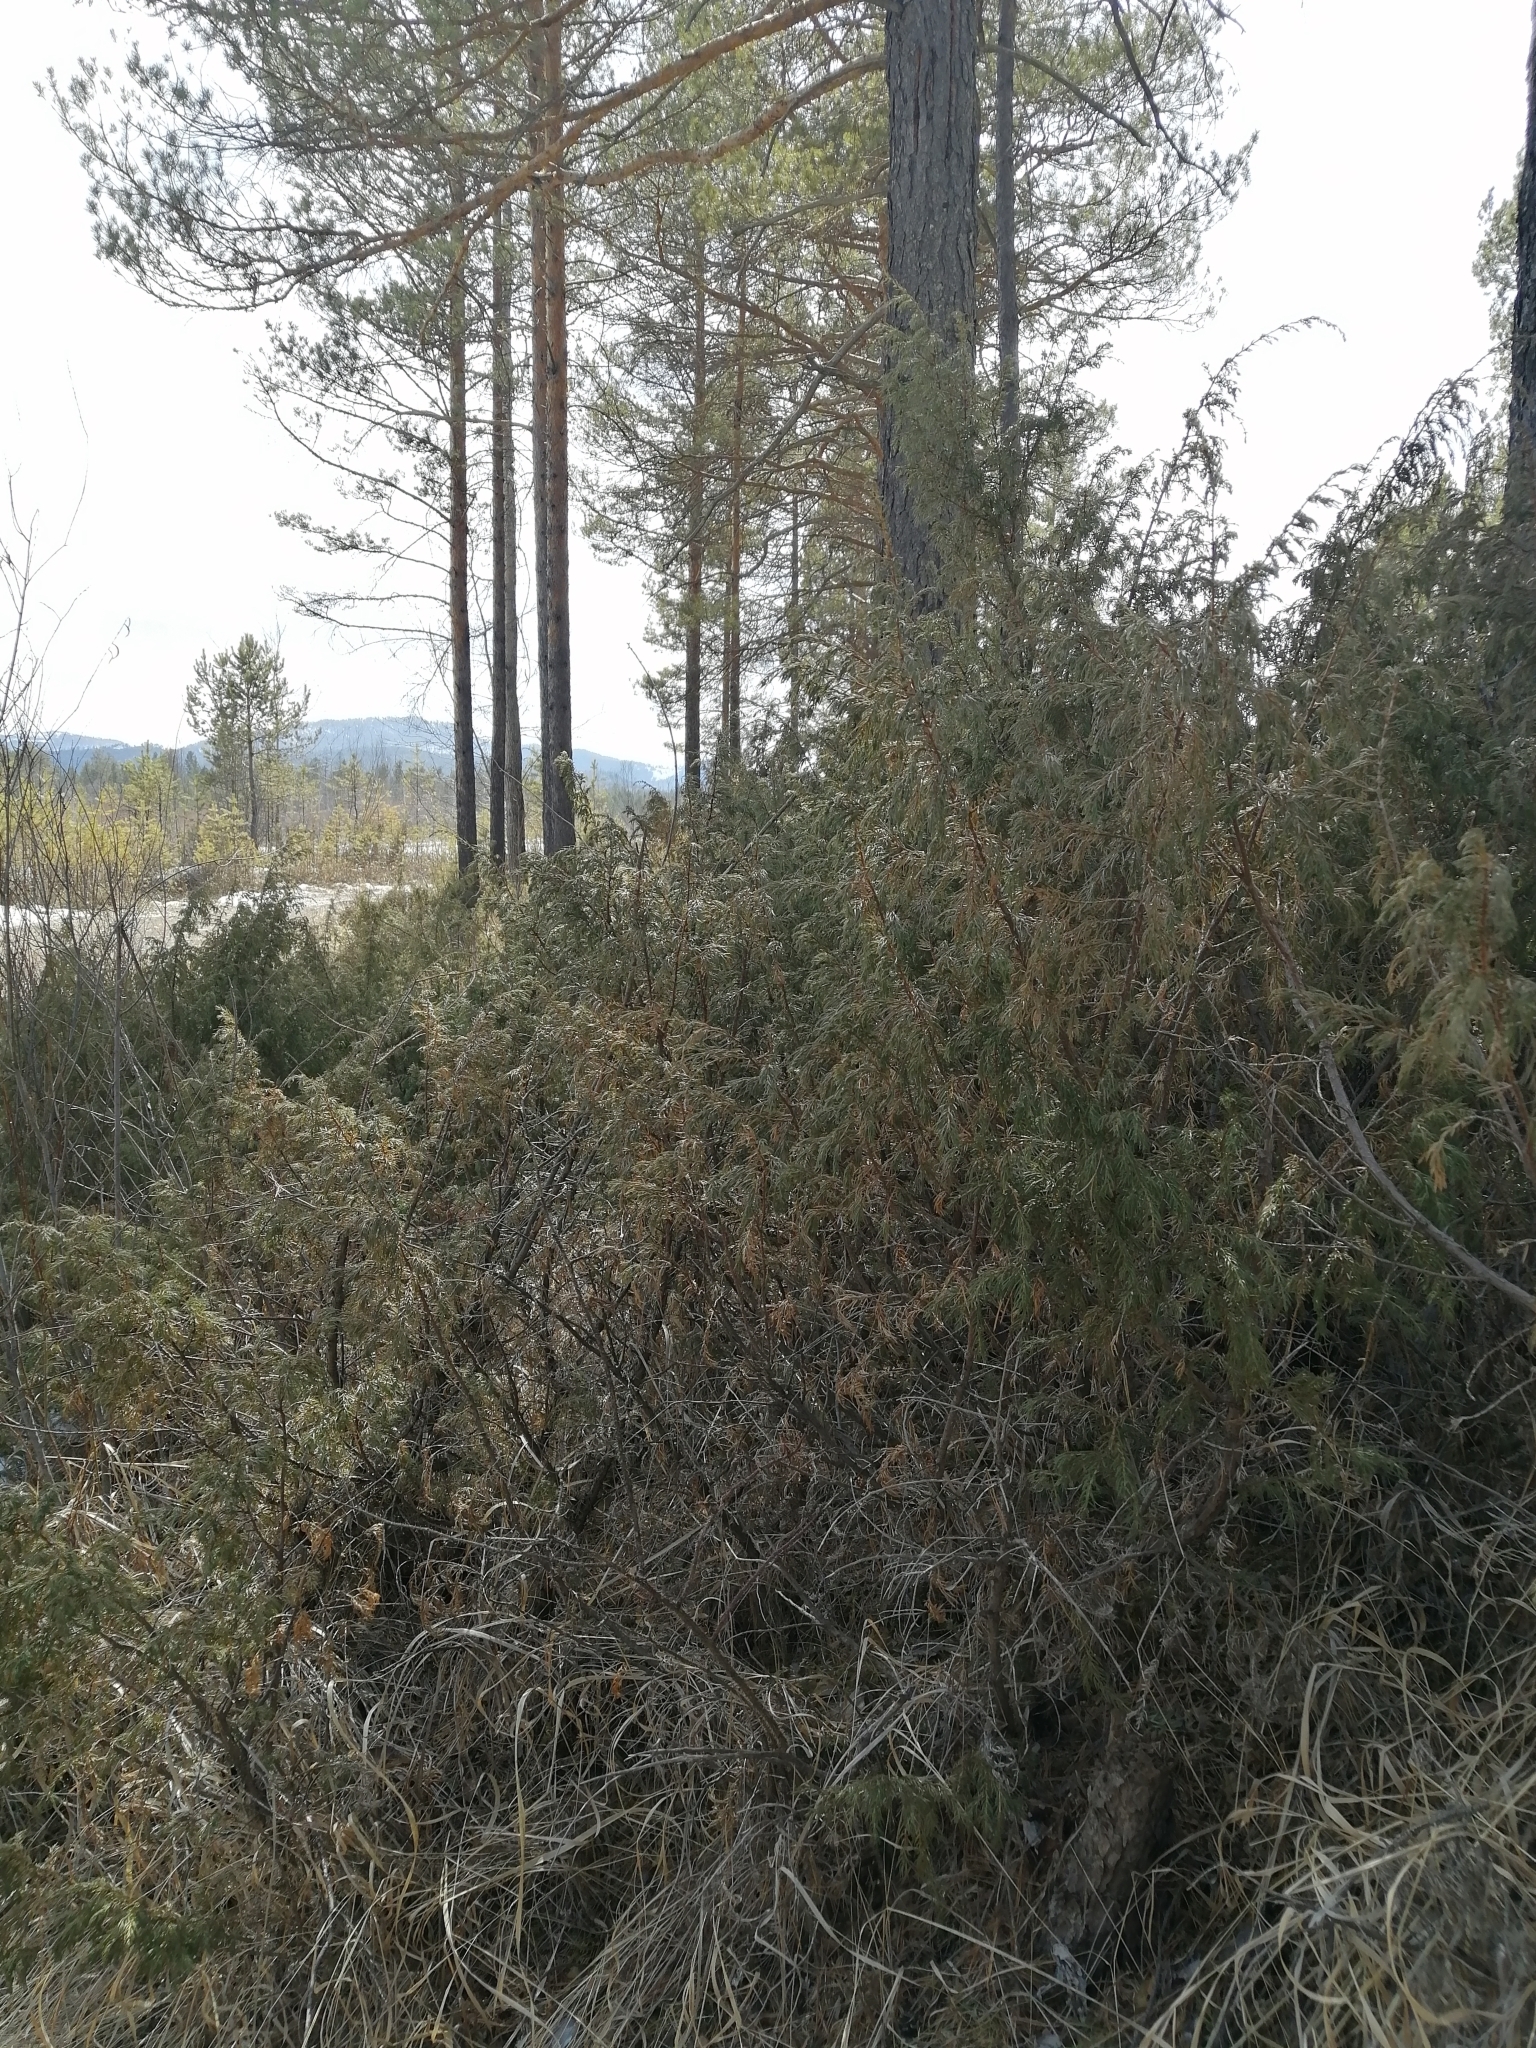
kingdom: Plantae
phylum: Tracheophyta
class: Pinopsida
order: Pinales
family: Cupressaceae
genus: Juniperus
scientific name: Juniperus communis
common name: Common juniper
